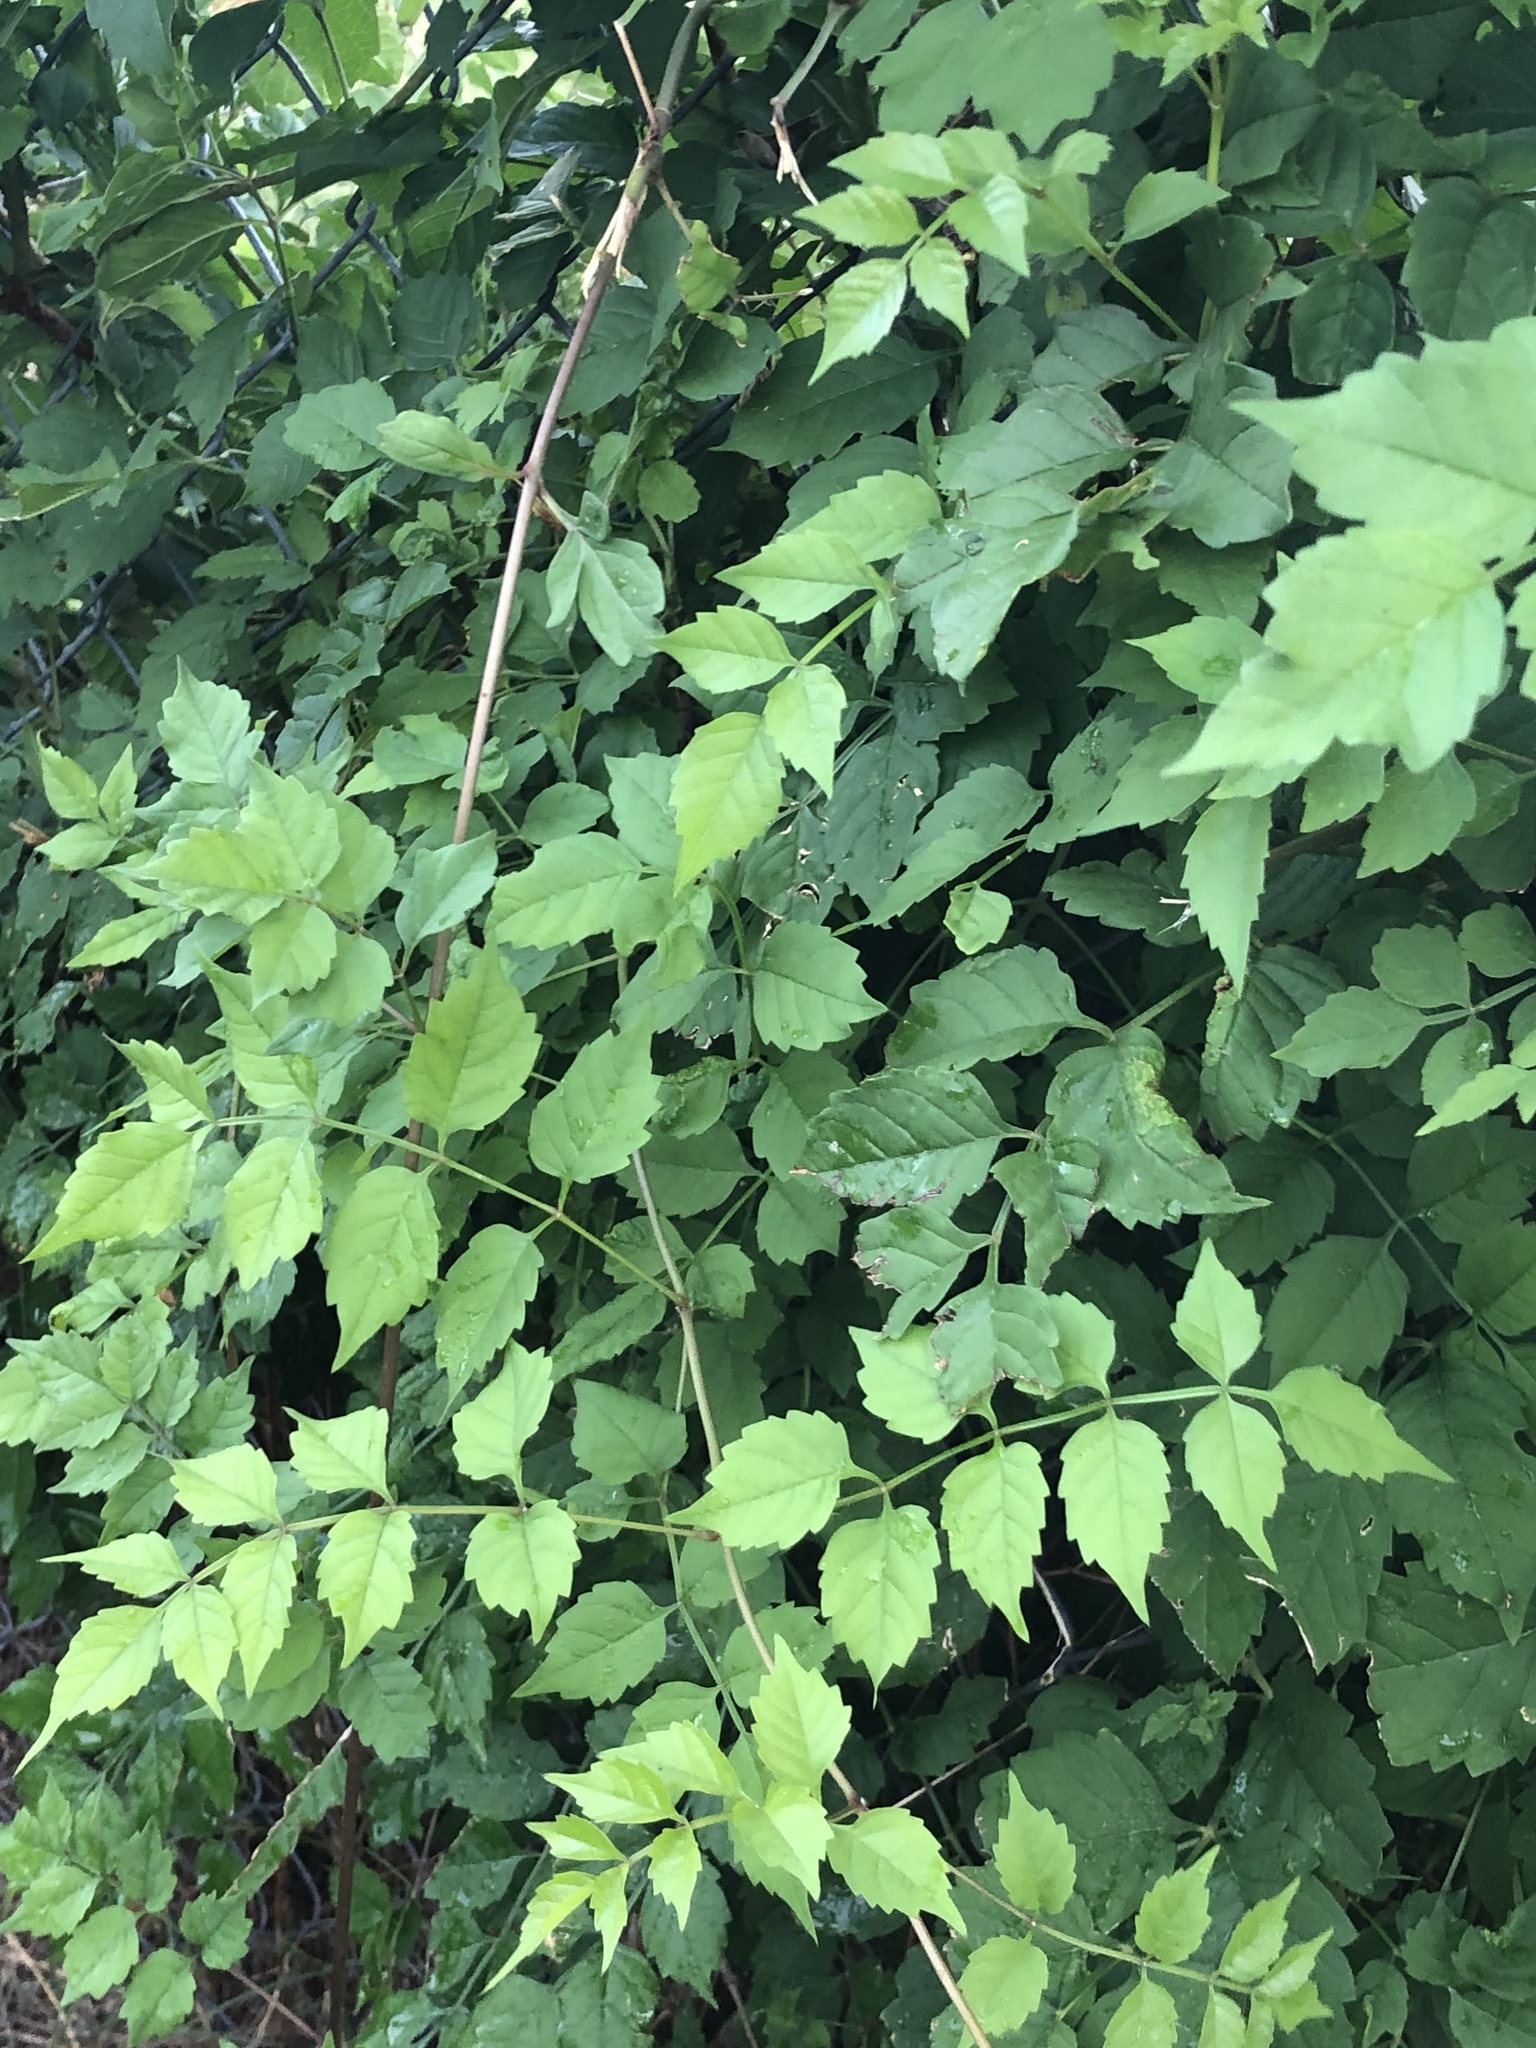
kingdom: Plantae
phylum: Tracheophyta
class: Magnoliopsida
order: Lamiales
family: Bignoniaceae
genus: Campsis
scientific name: Campsis radicans
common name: Trumpet-creeper
